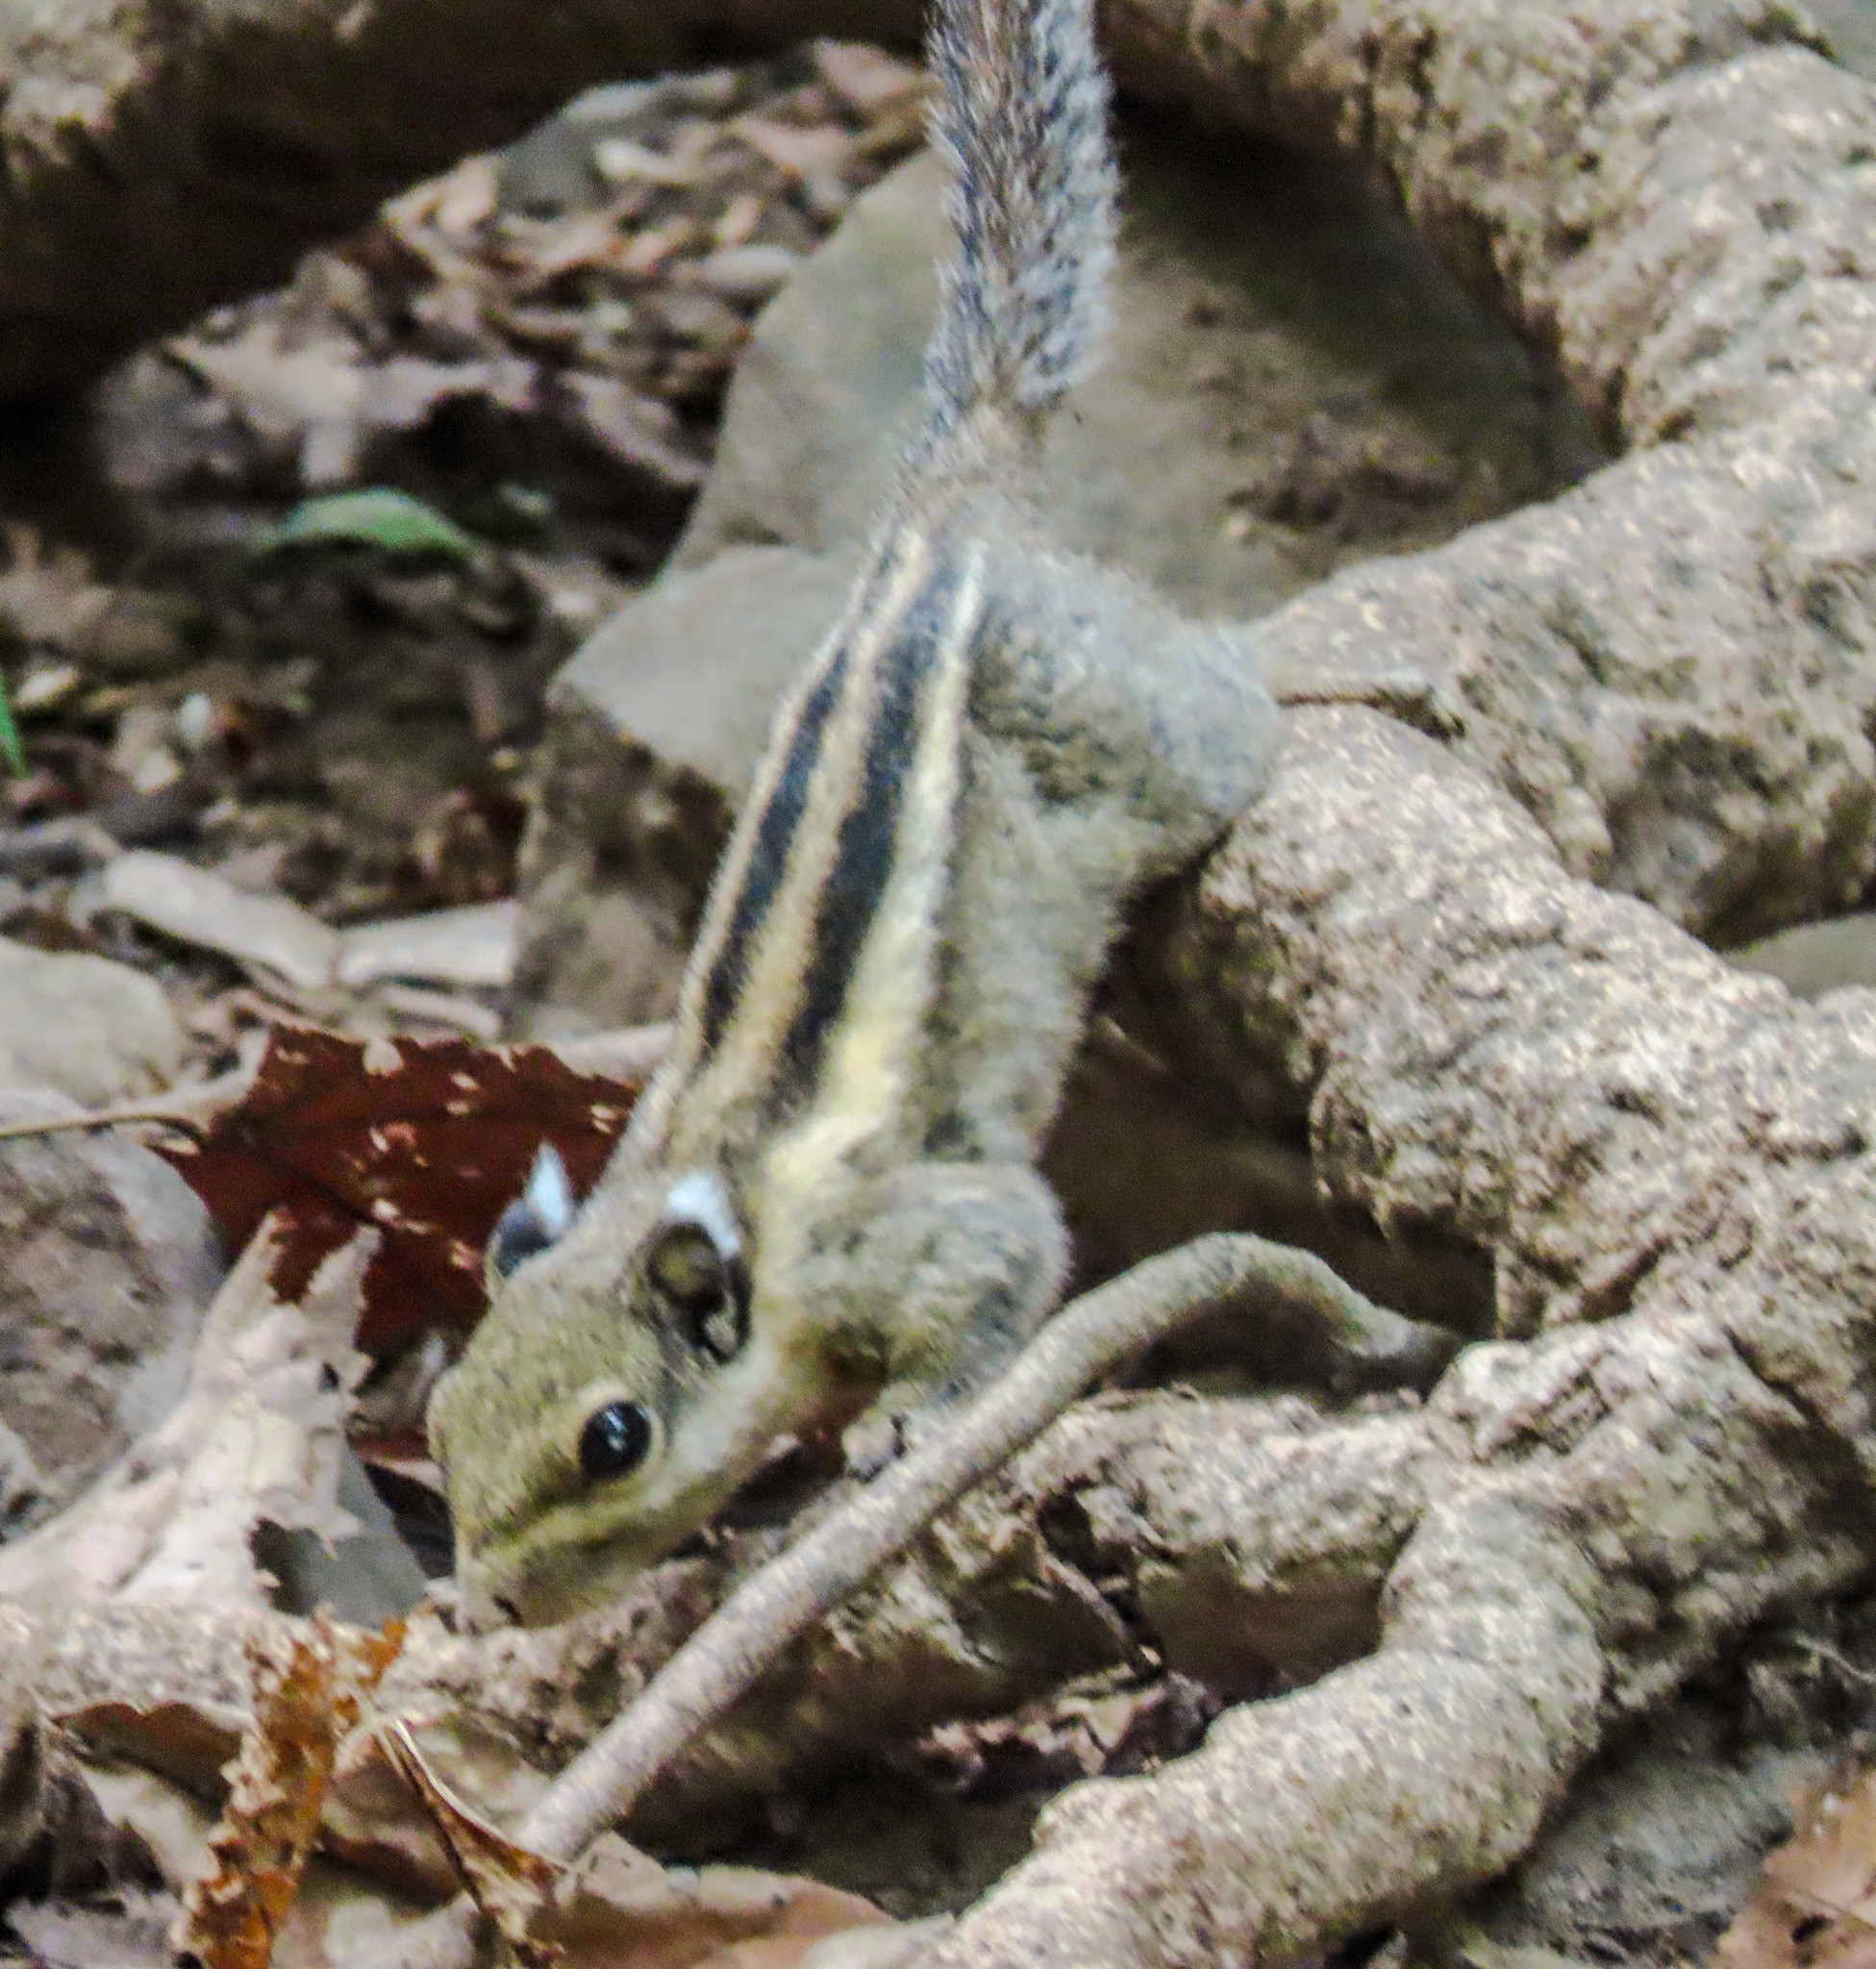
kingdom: Animalia
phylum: Chordata
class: Mammalia
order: Rodentia
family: Sciuridae
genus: Tamiops
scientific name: Tamiops mcclellandii
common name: Himalayan striped squirrel
